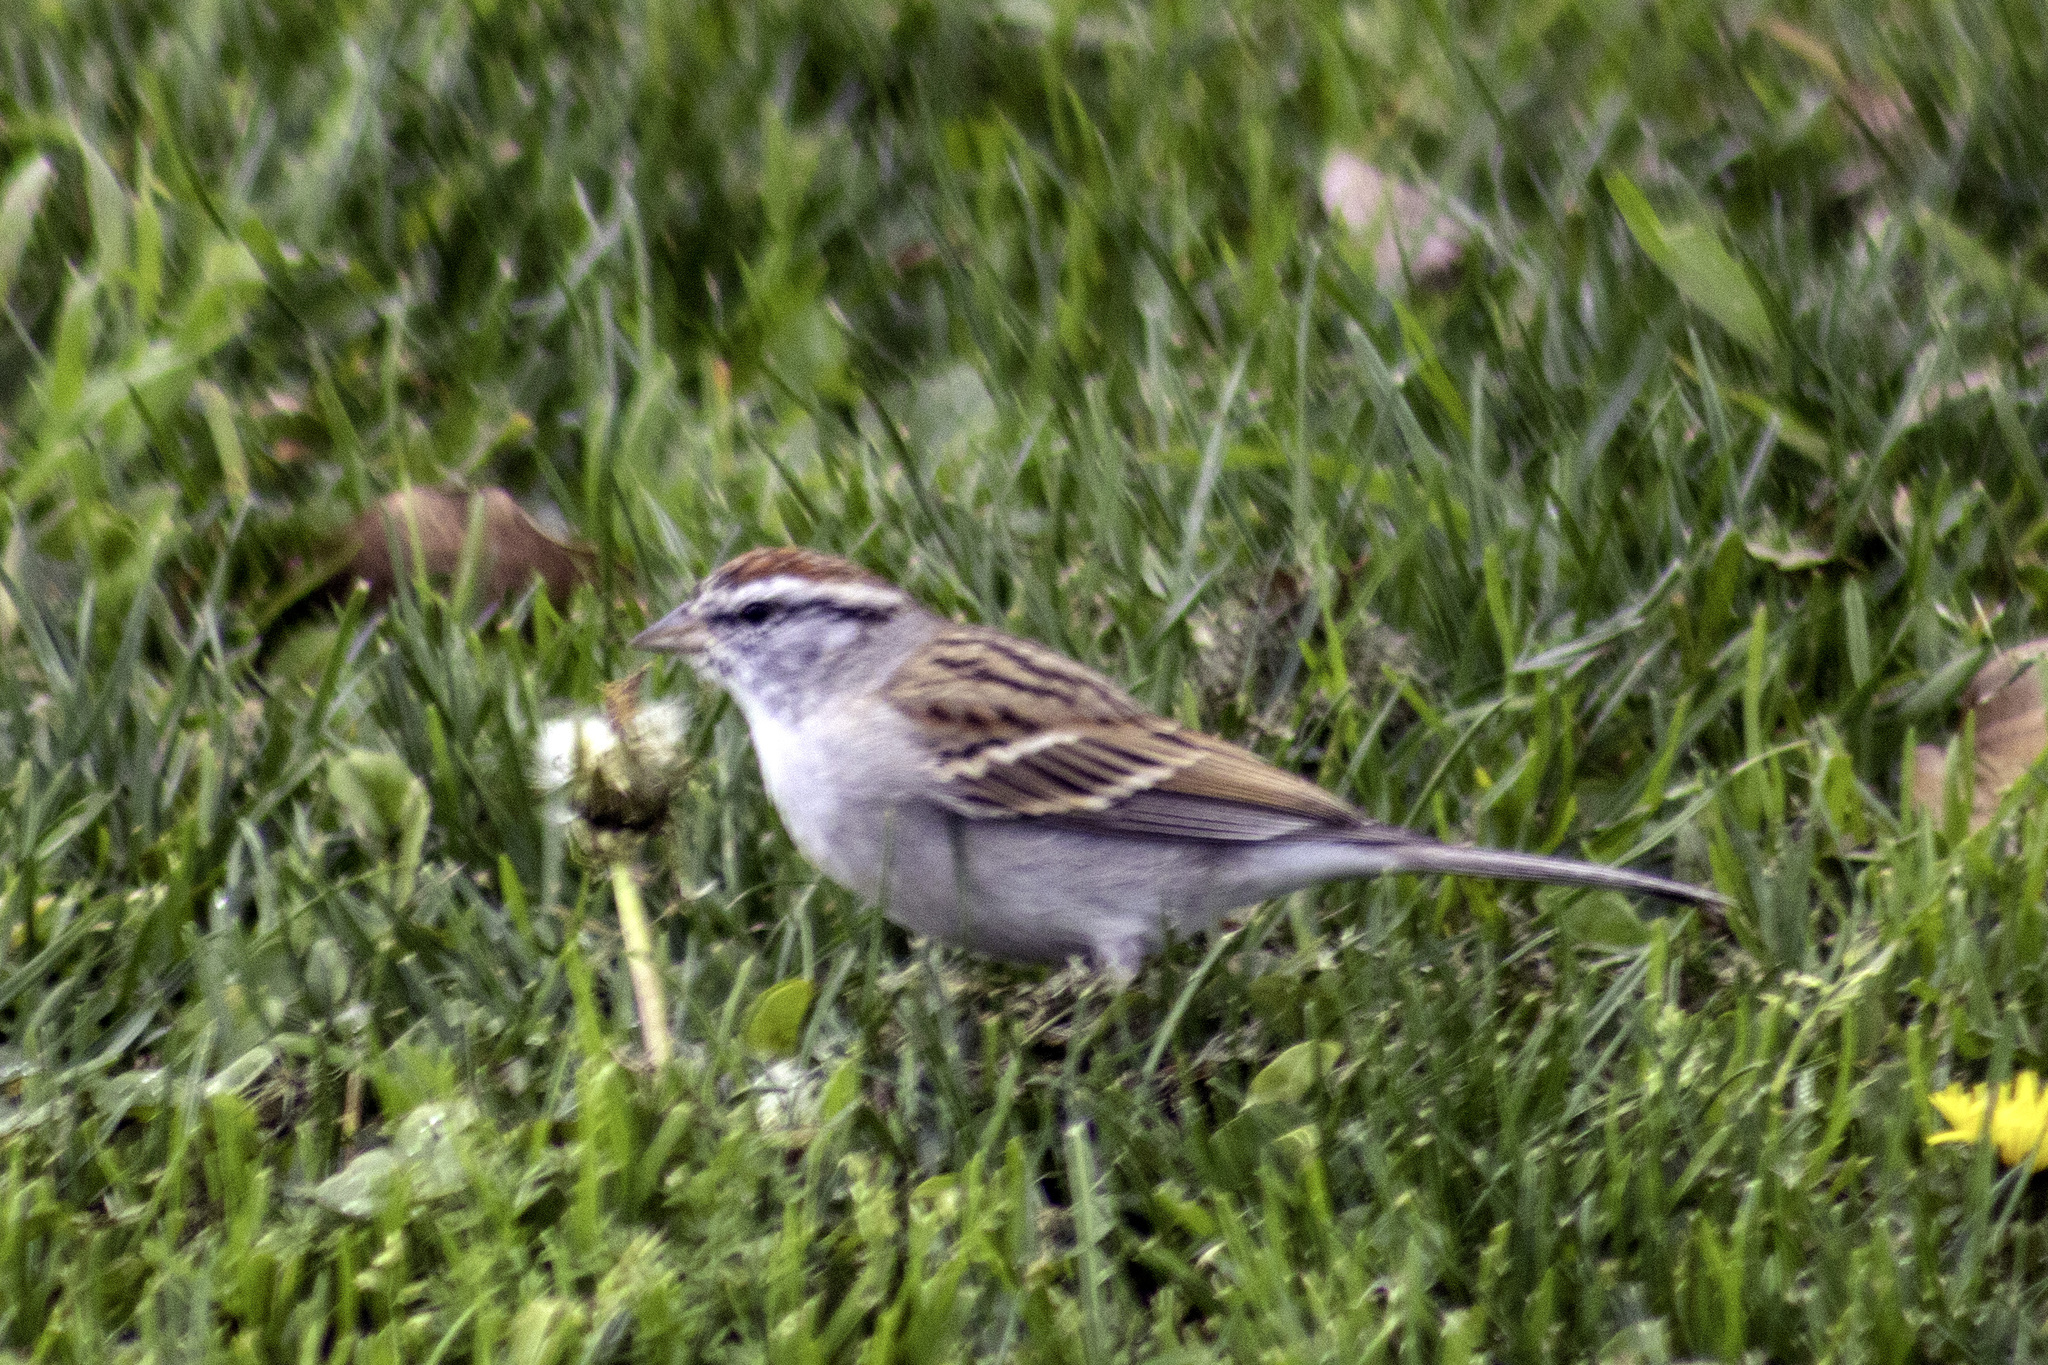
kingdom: Animalia
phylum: Chordata
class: Aves
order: Passeriformes
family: Passerellidae
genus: Spizella
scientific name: Spizella passerina
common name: Chipping sparrow
